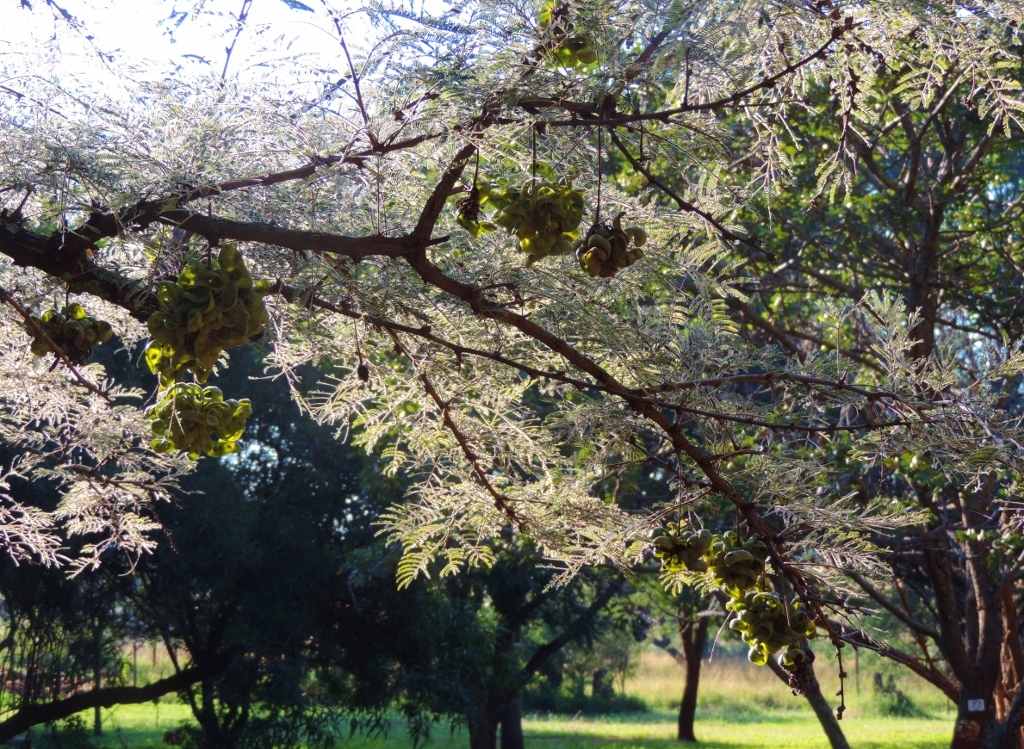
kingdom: Plantae
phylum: Tracheophyta
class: Magnoliopsida
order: Fabales
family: Fabaceae
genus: Dichrostachys
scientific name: Dichrostachys cinerea
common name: Sicklebush
